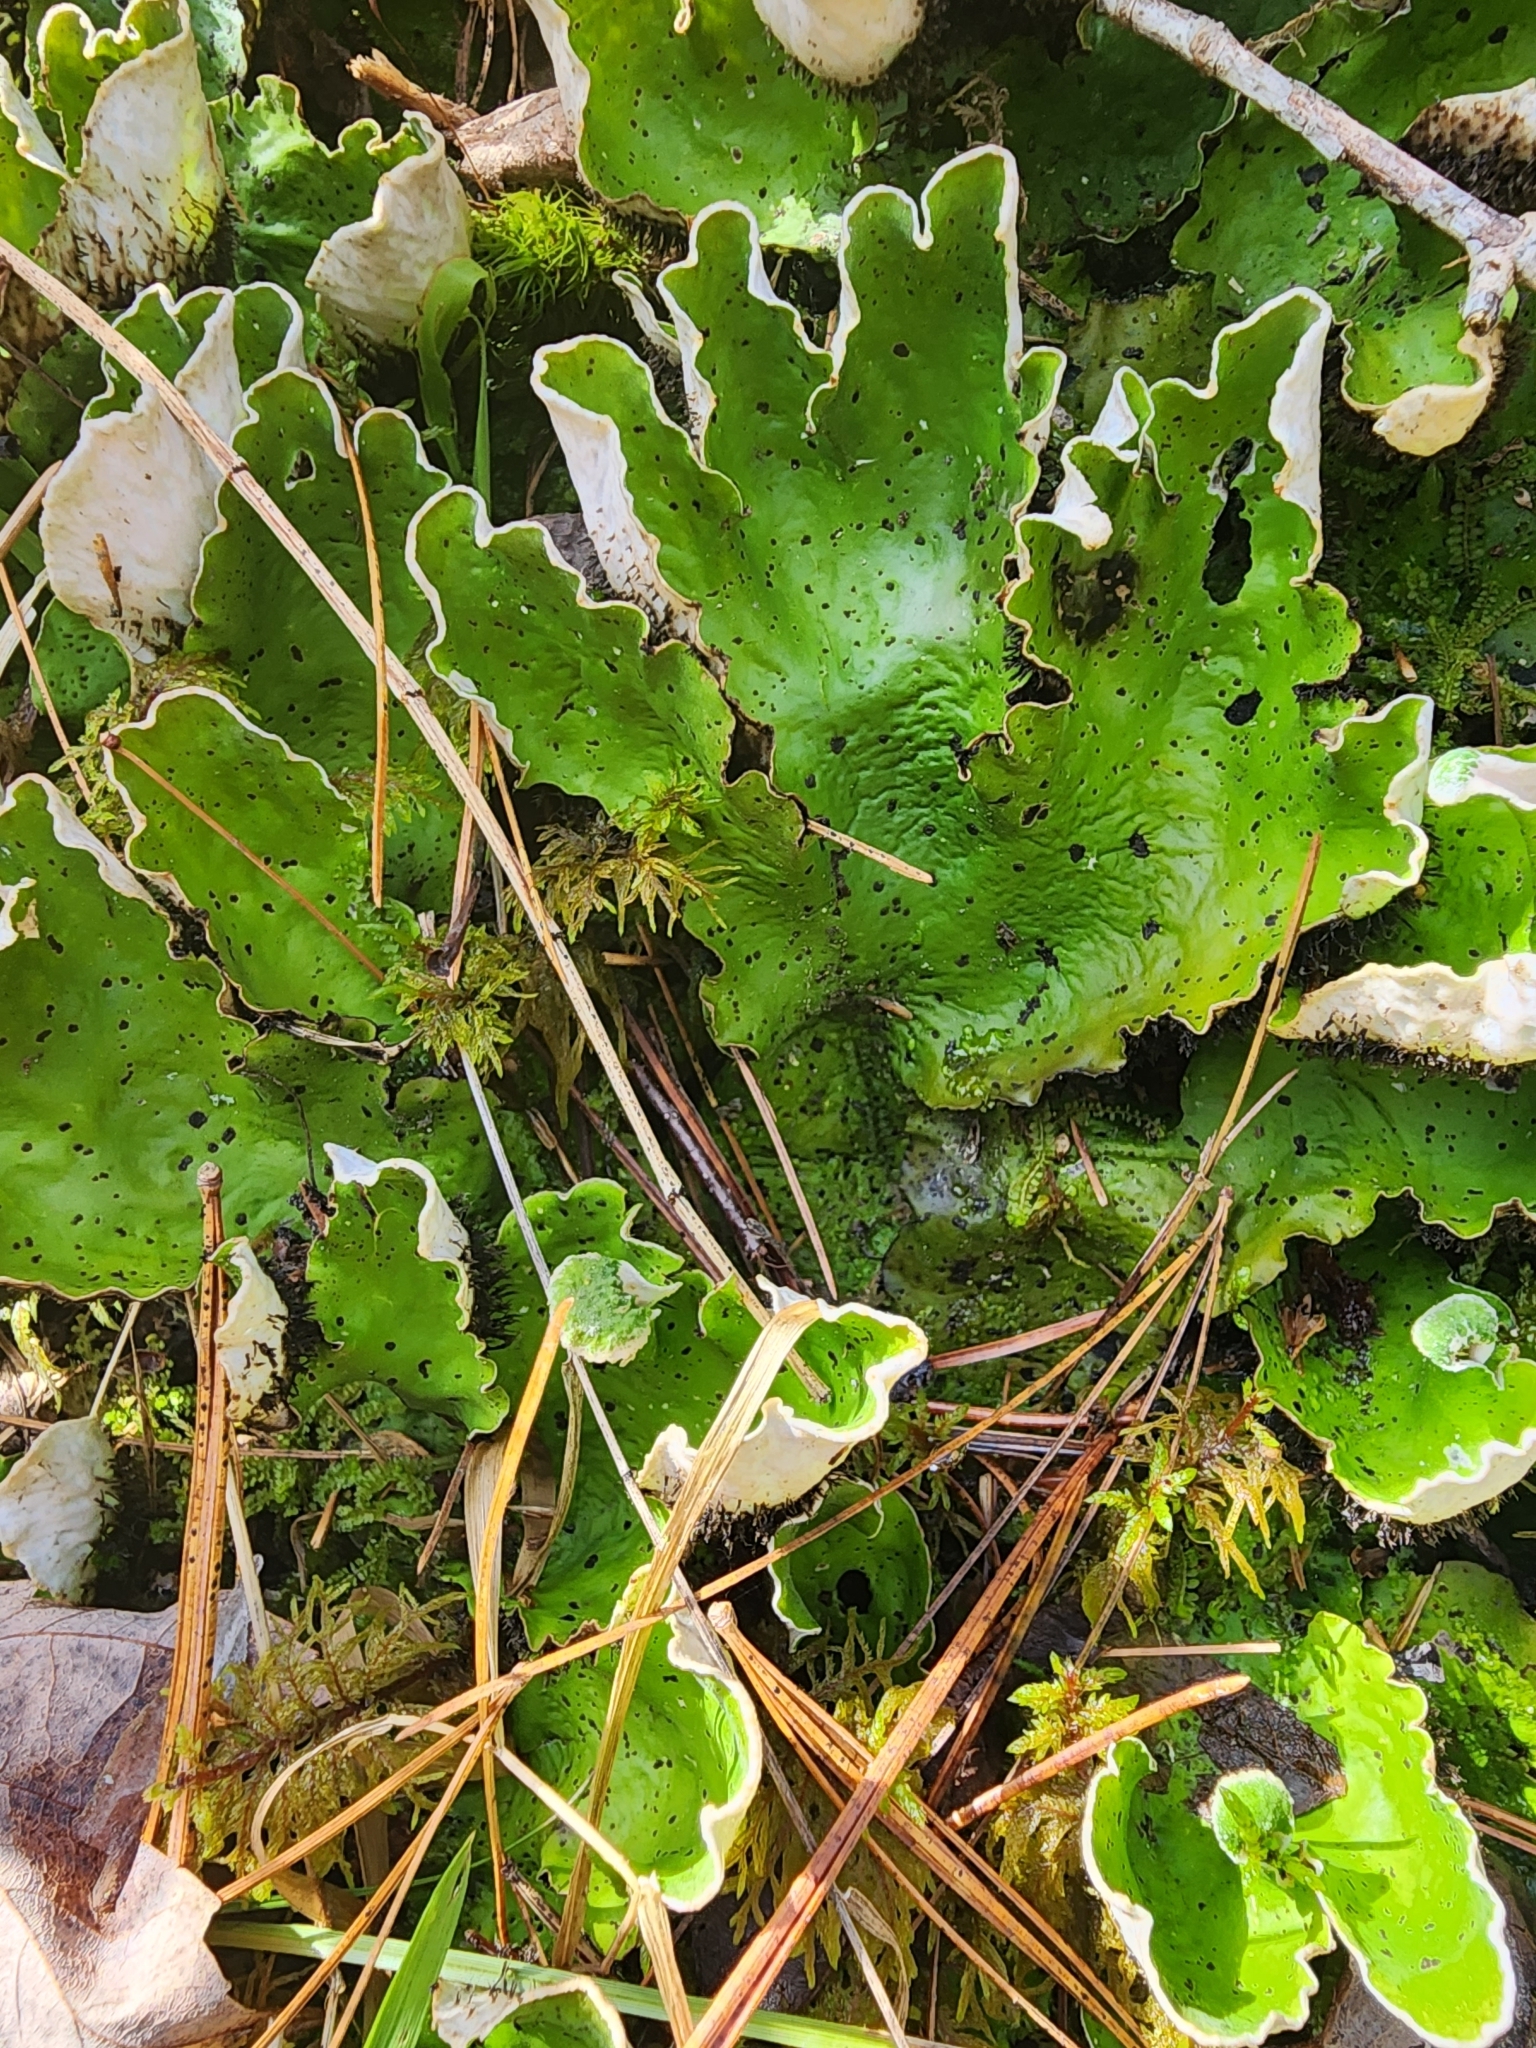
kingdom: Fungi
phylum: Ascomycota
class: Lecanoromycetes
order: Peltigerales
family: Peltigeraceae
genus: Peltigera
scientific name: Peltigera aphthosa
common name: Common freckle pelt lichen
